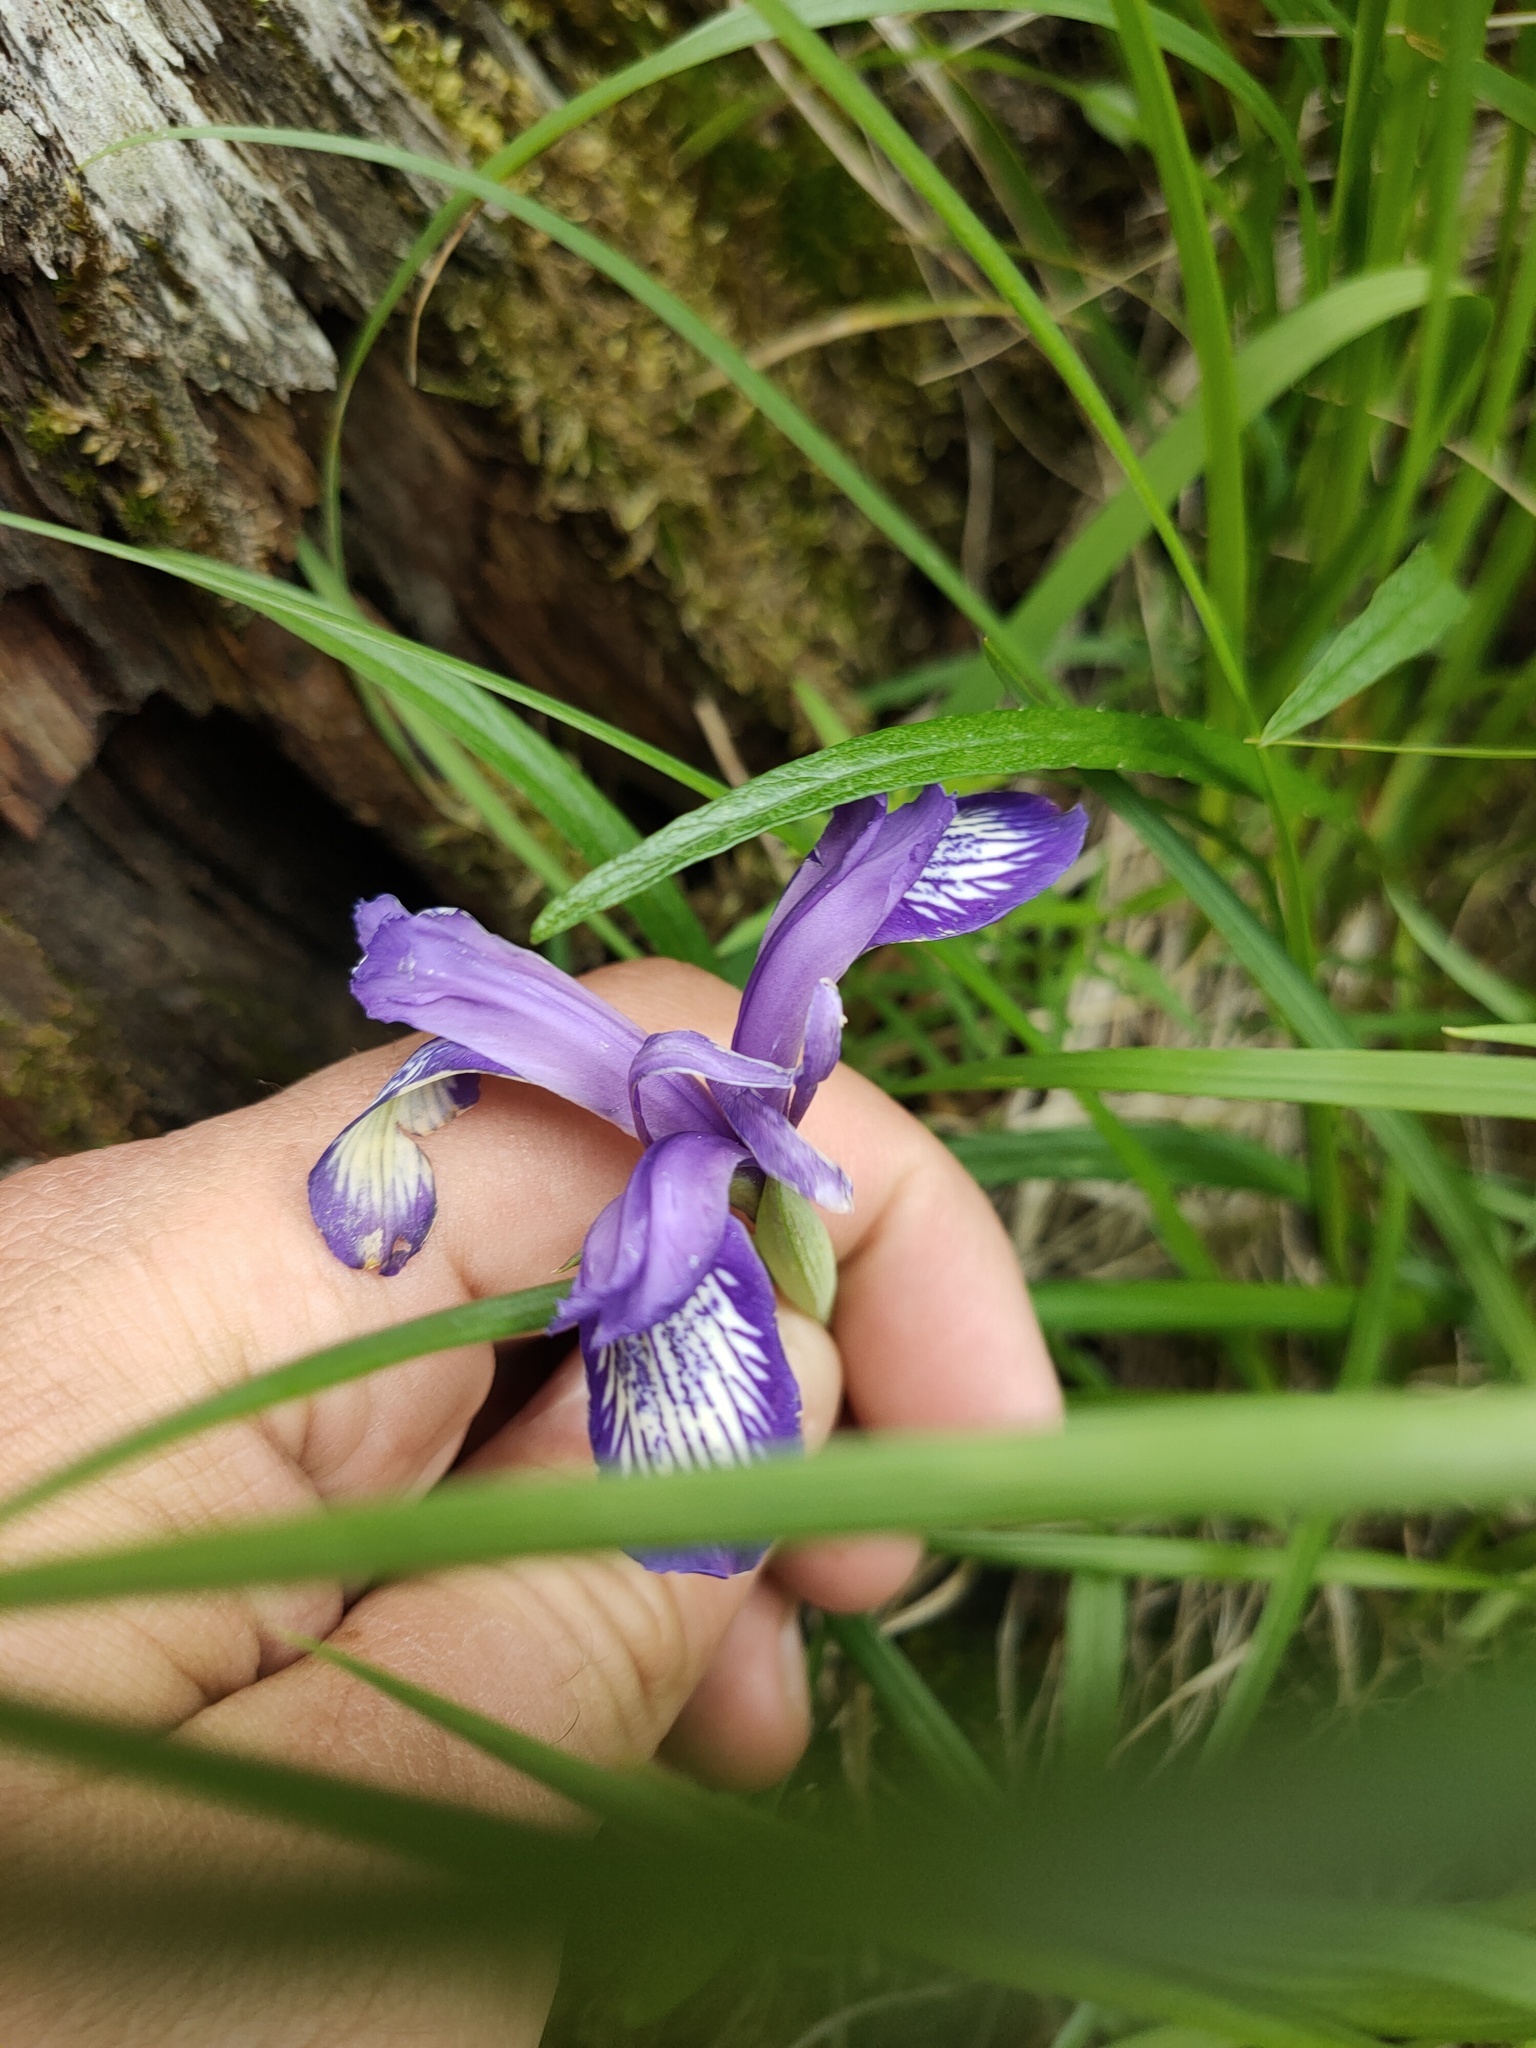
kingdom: Plantae
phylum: Tracheophyta
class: Liliopsida
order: Asparagales
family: Iridaceae
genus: Iris
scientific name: Iris ruthenica
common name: Purple-bract iris
